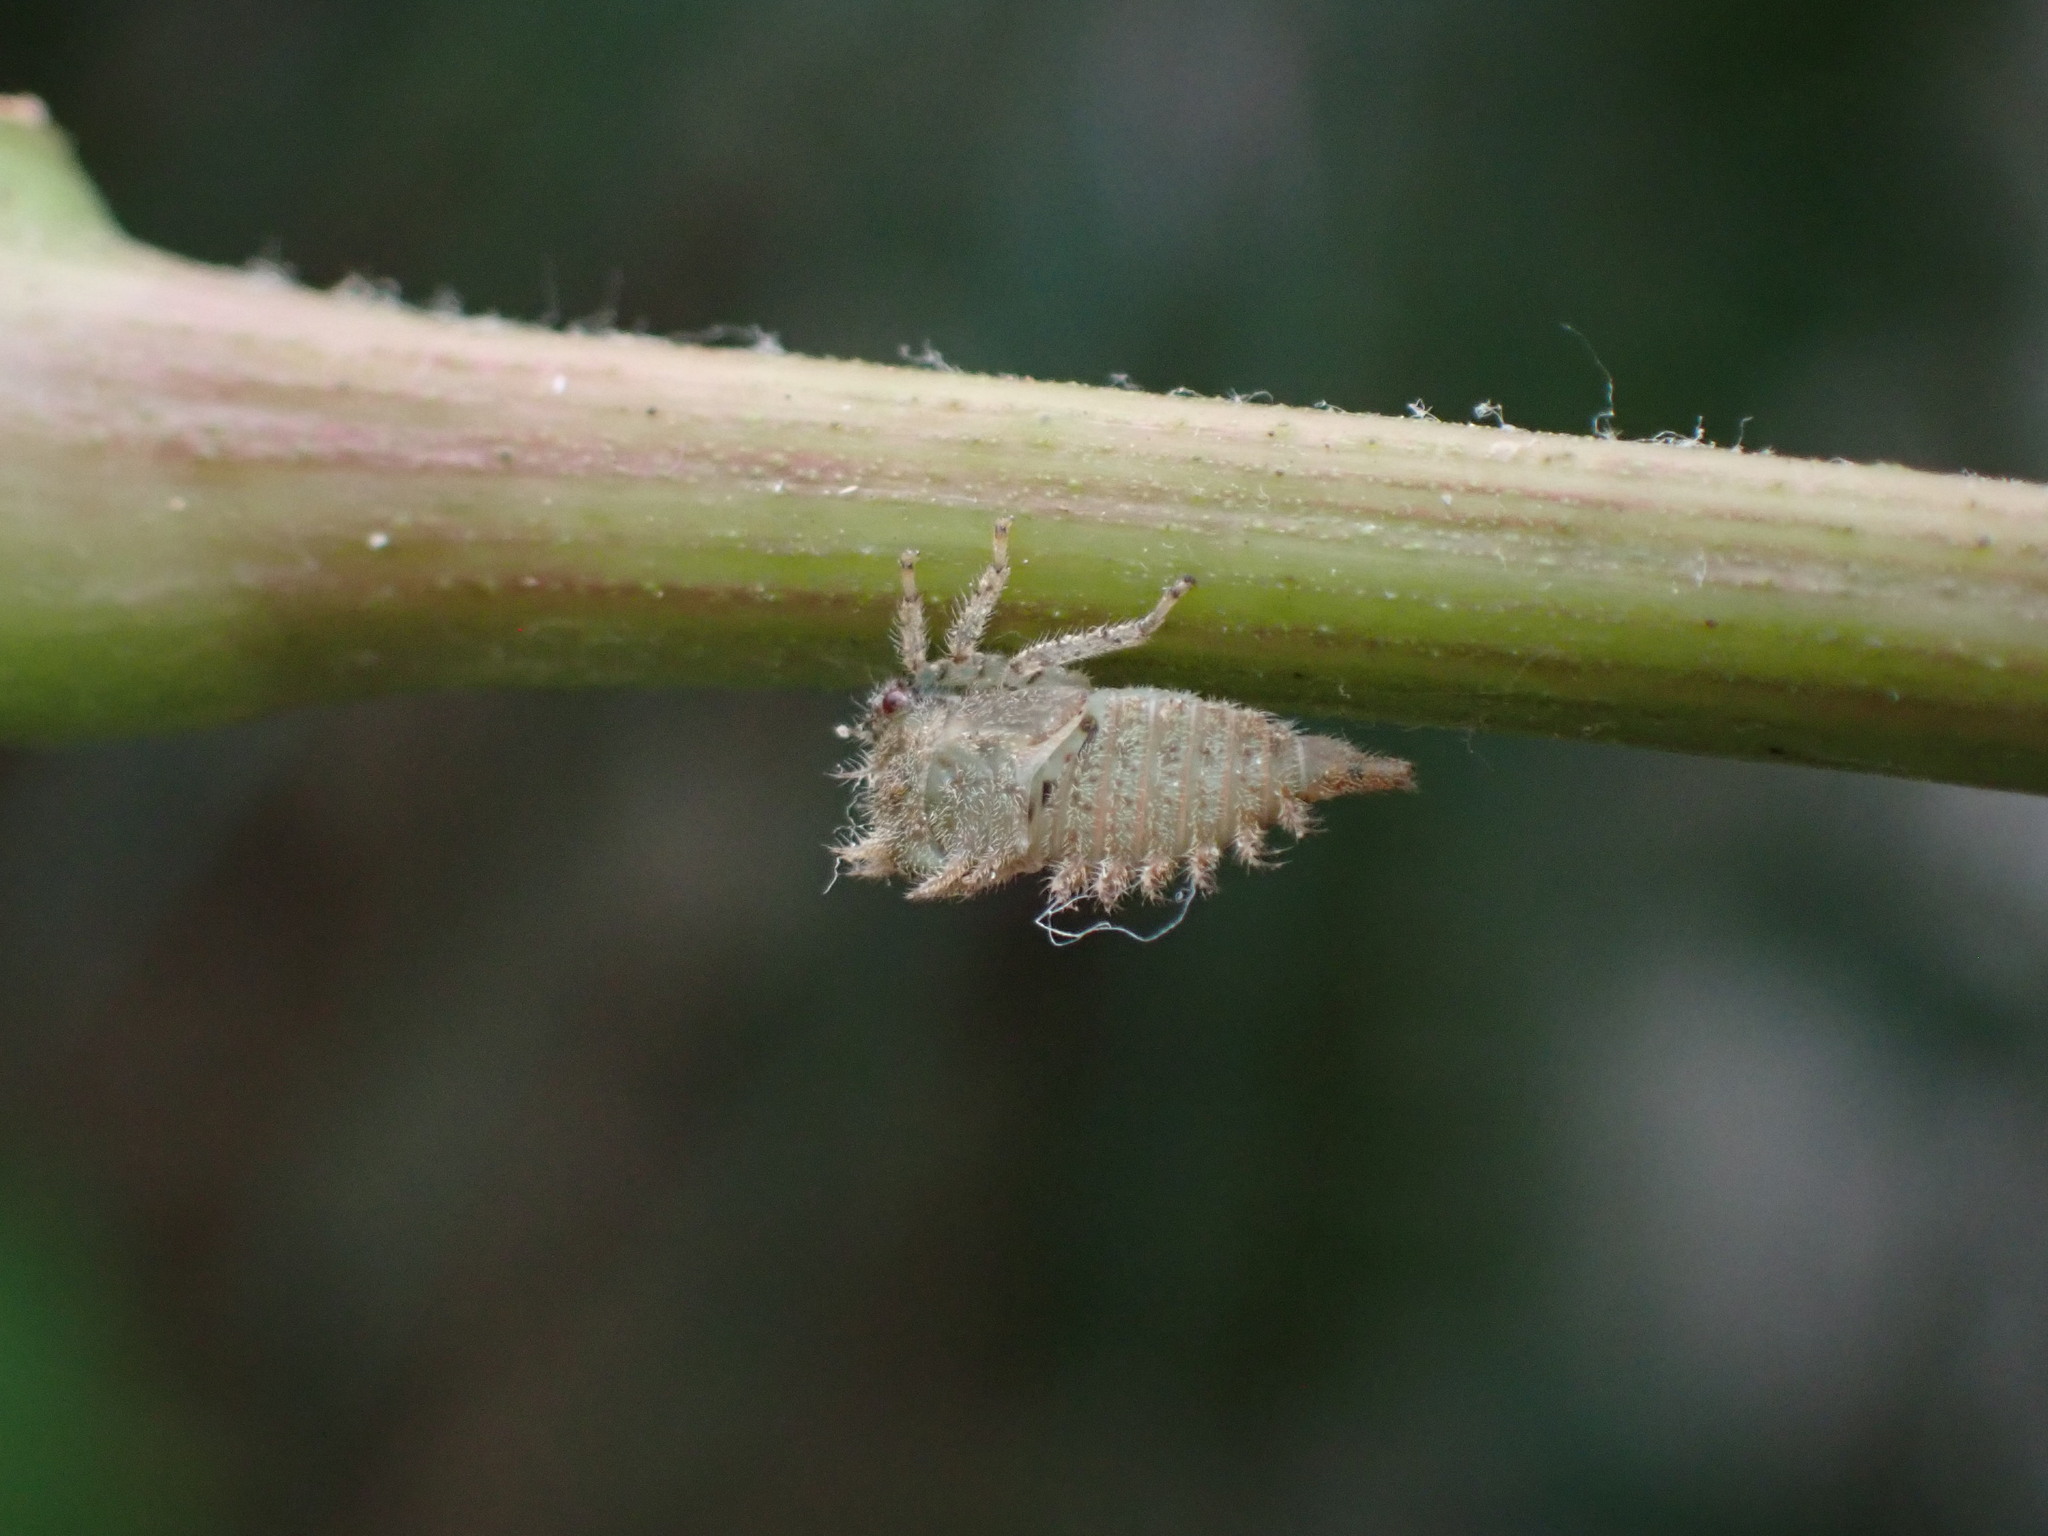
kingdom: Animalia
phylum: Arthropoda
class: Insecta
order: Hemiptera
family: Membracidae
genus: Stictocephala
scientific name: Stictocephala bisonia
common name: American buffalo treehopper
